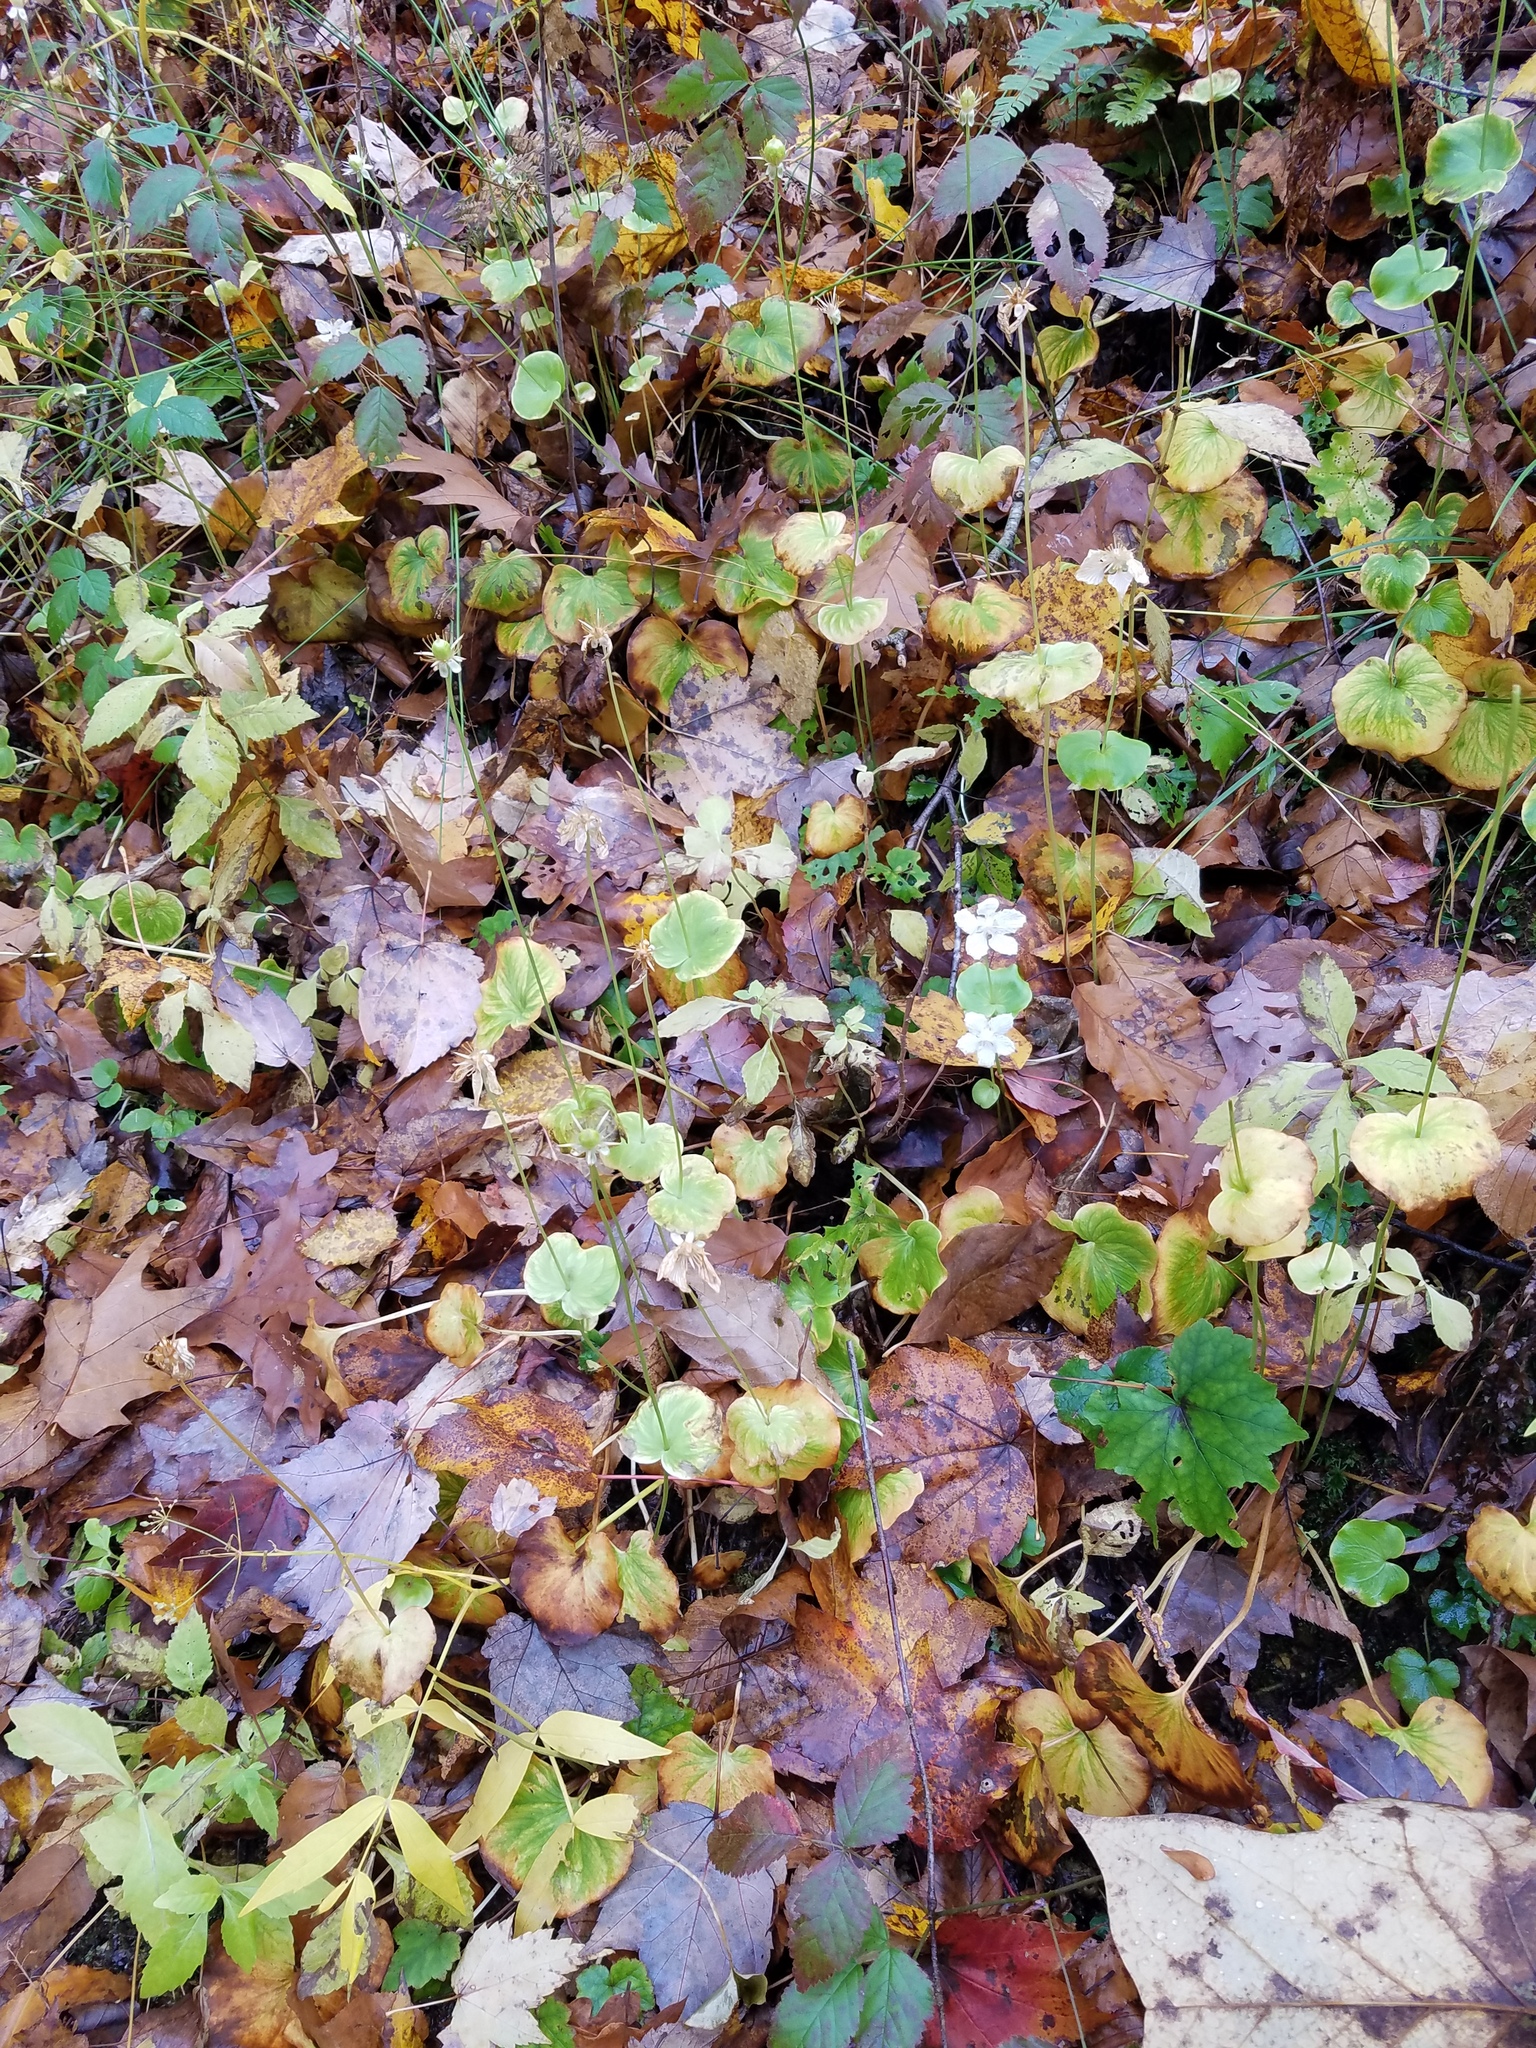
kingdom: Plantae
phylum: Tracheophyta
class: Magnoliopsida
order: Celastrales
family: Parnassiaceae
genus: Parnassia
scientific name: Parnassia asarifolia
